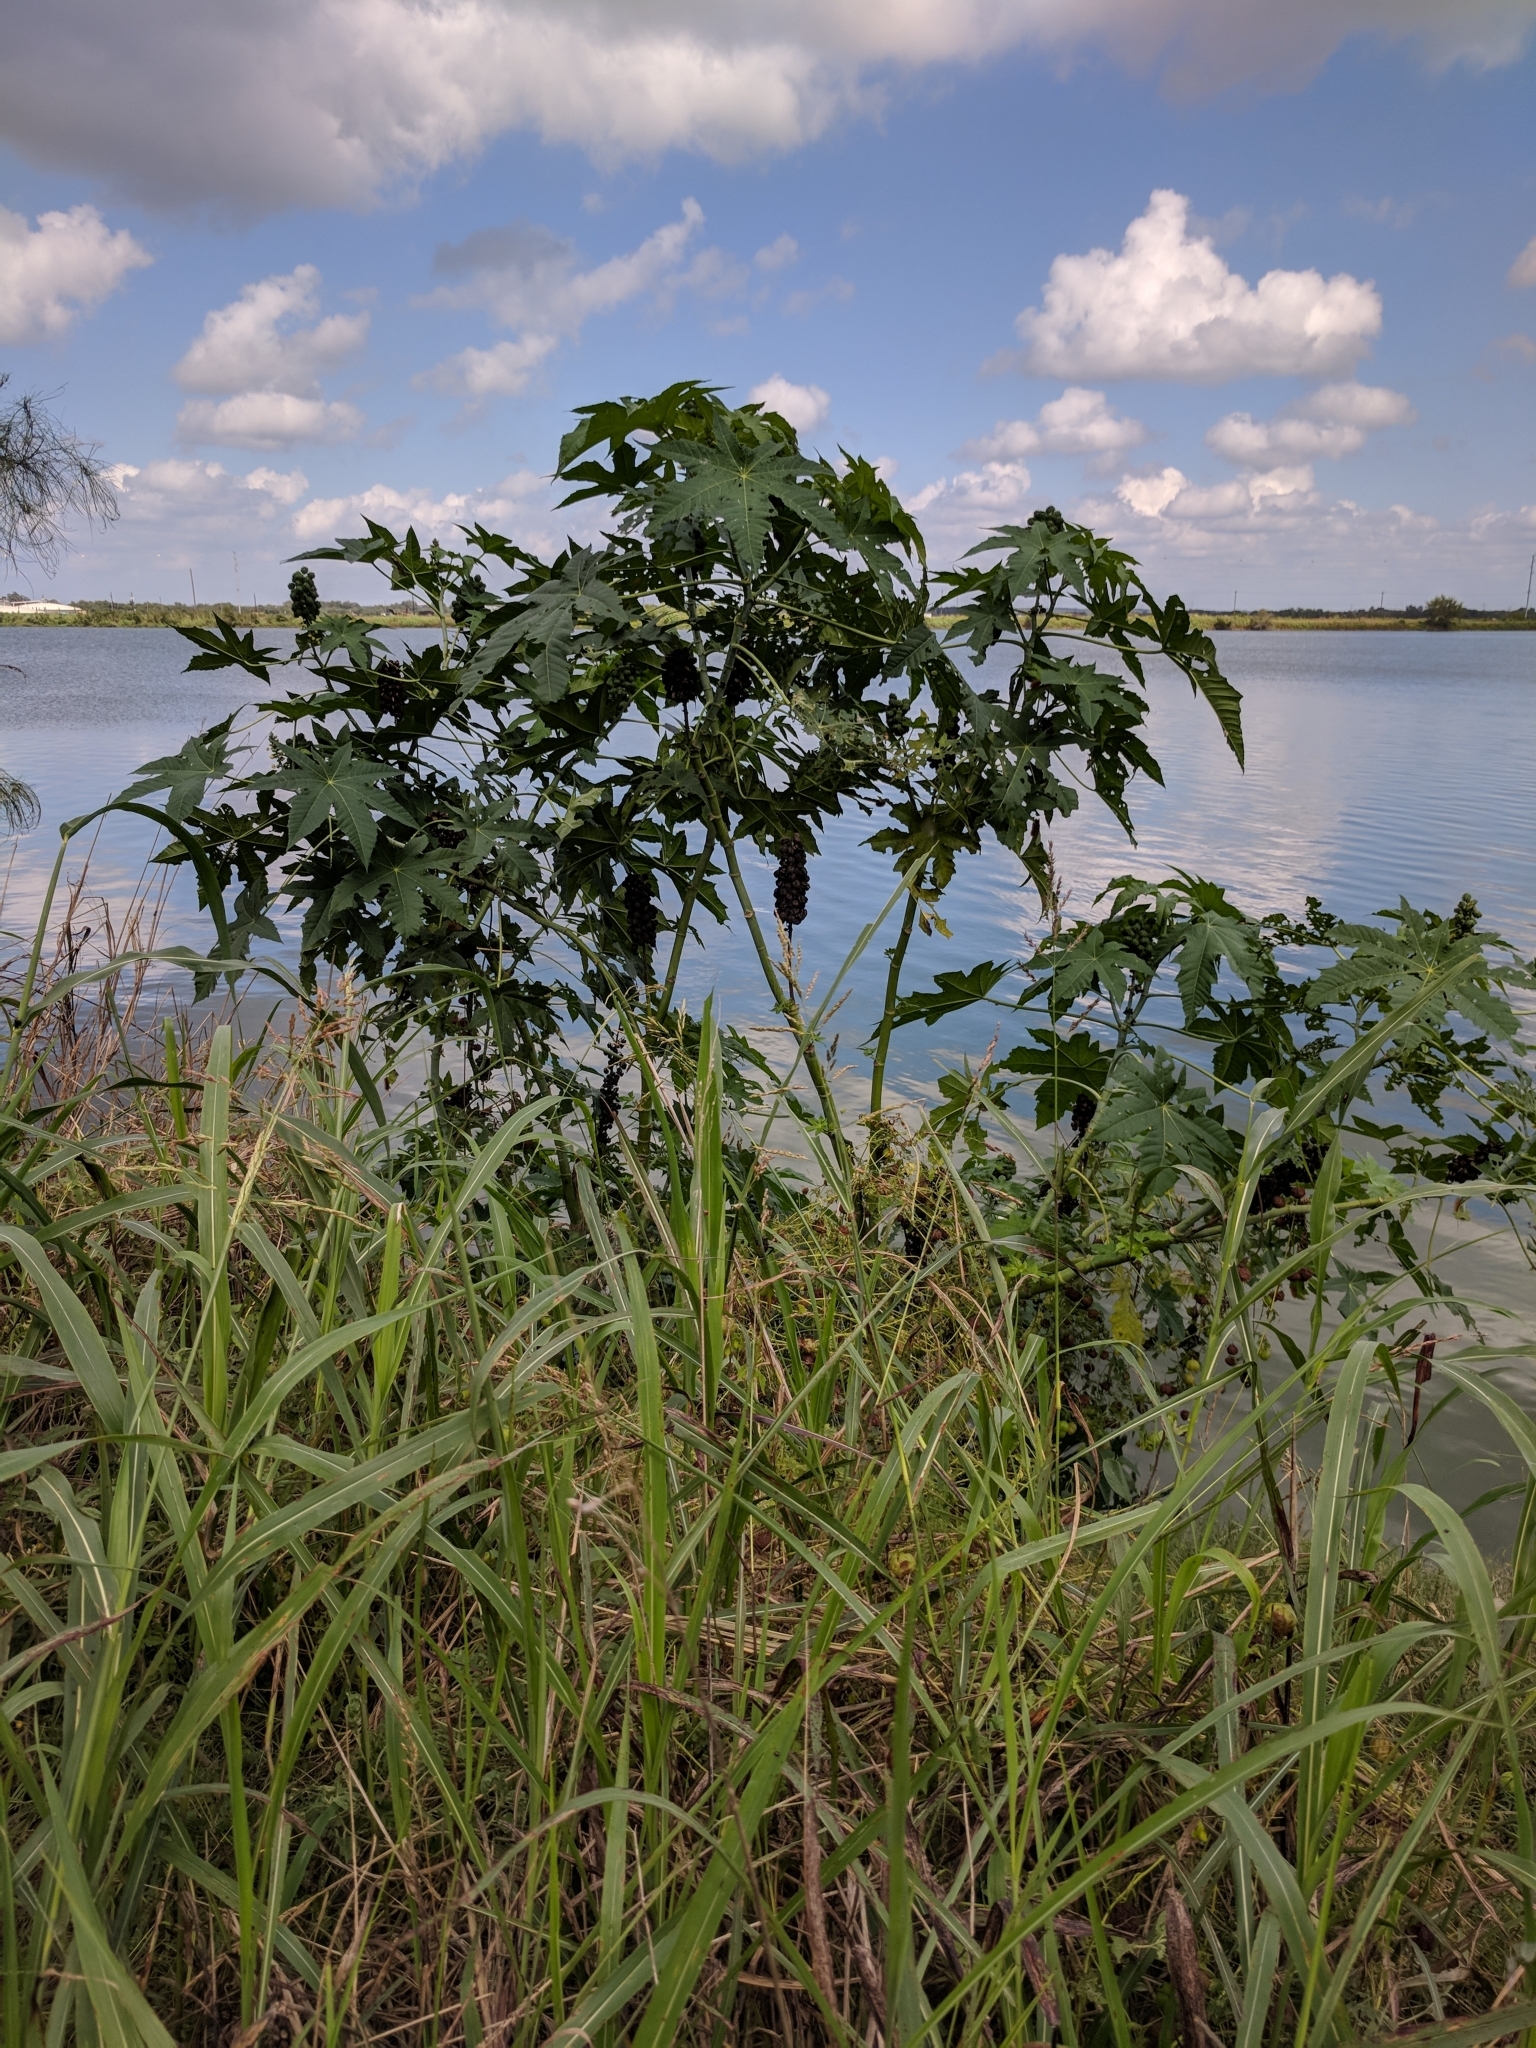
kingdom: Plantae
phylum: Tracheophyta
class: Magnoliopsida
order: Malpighiales
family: Euphorbiaceae
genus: Ricinus
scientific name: Ricinus communis
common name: Castor-oil-plant
